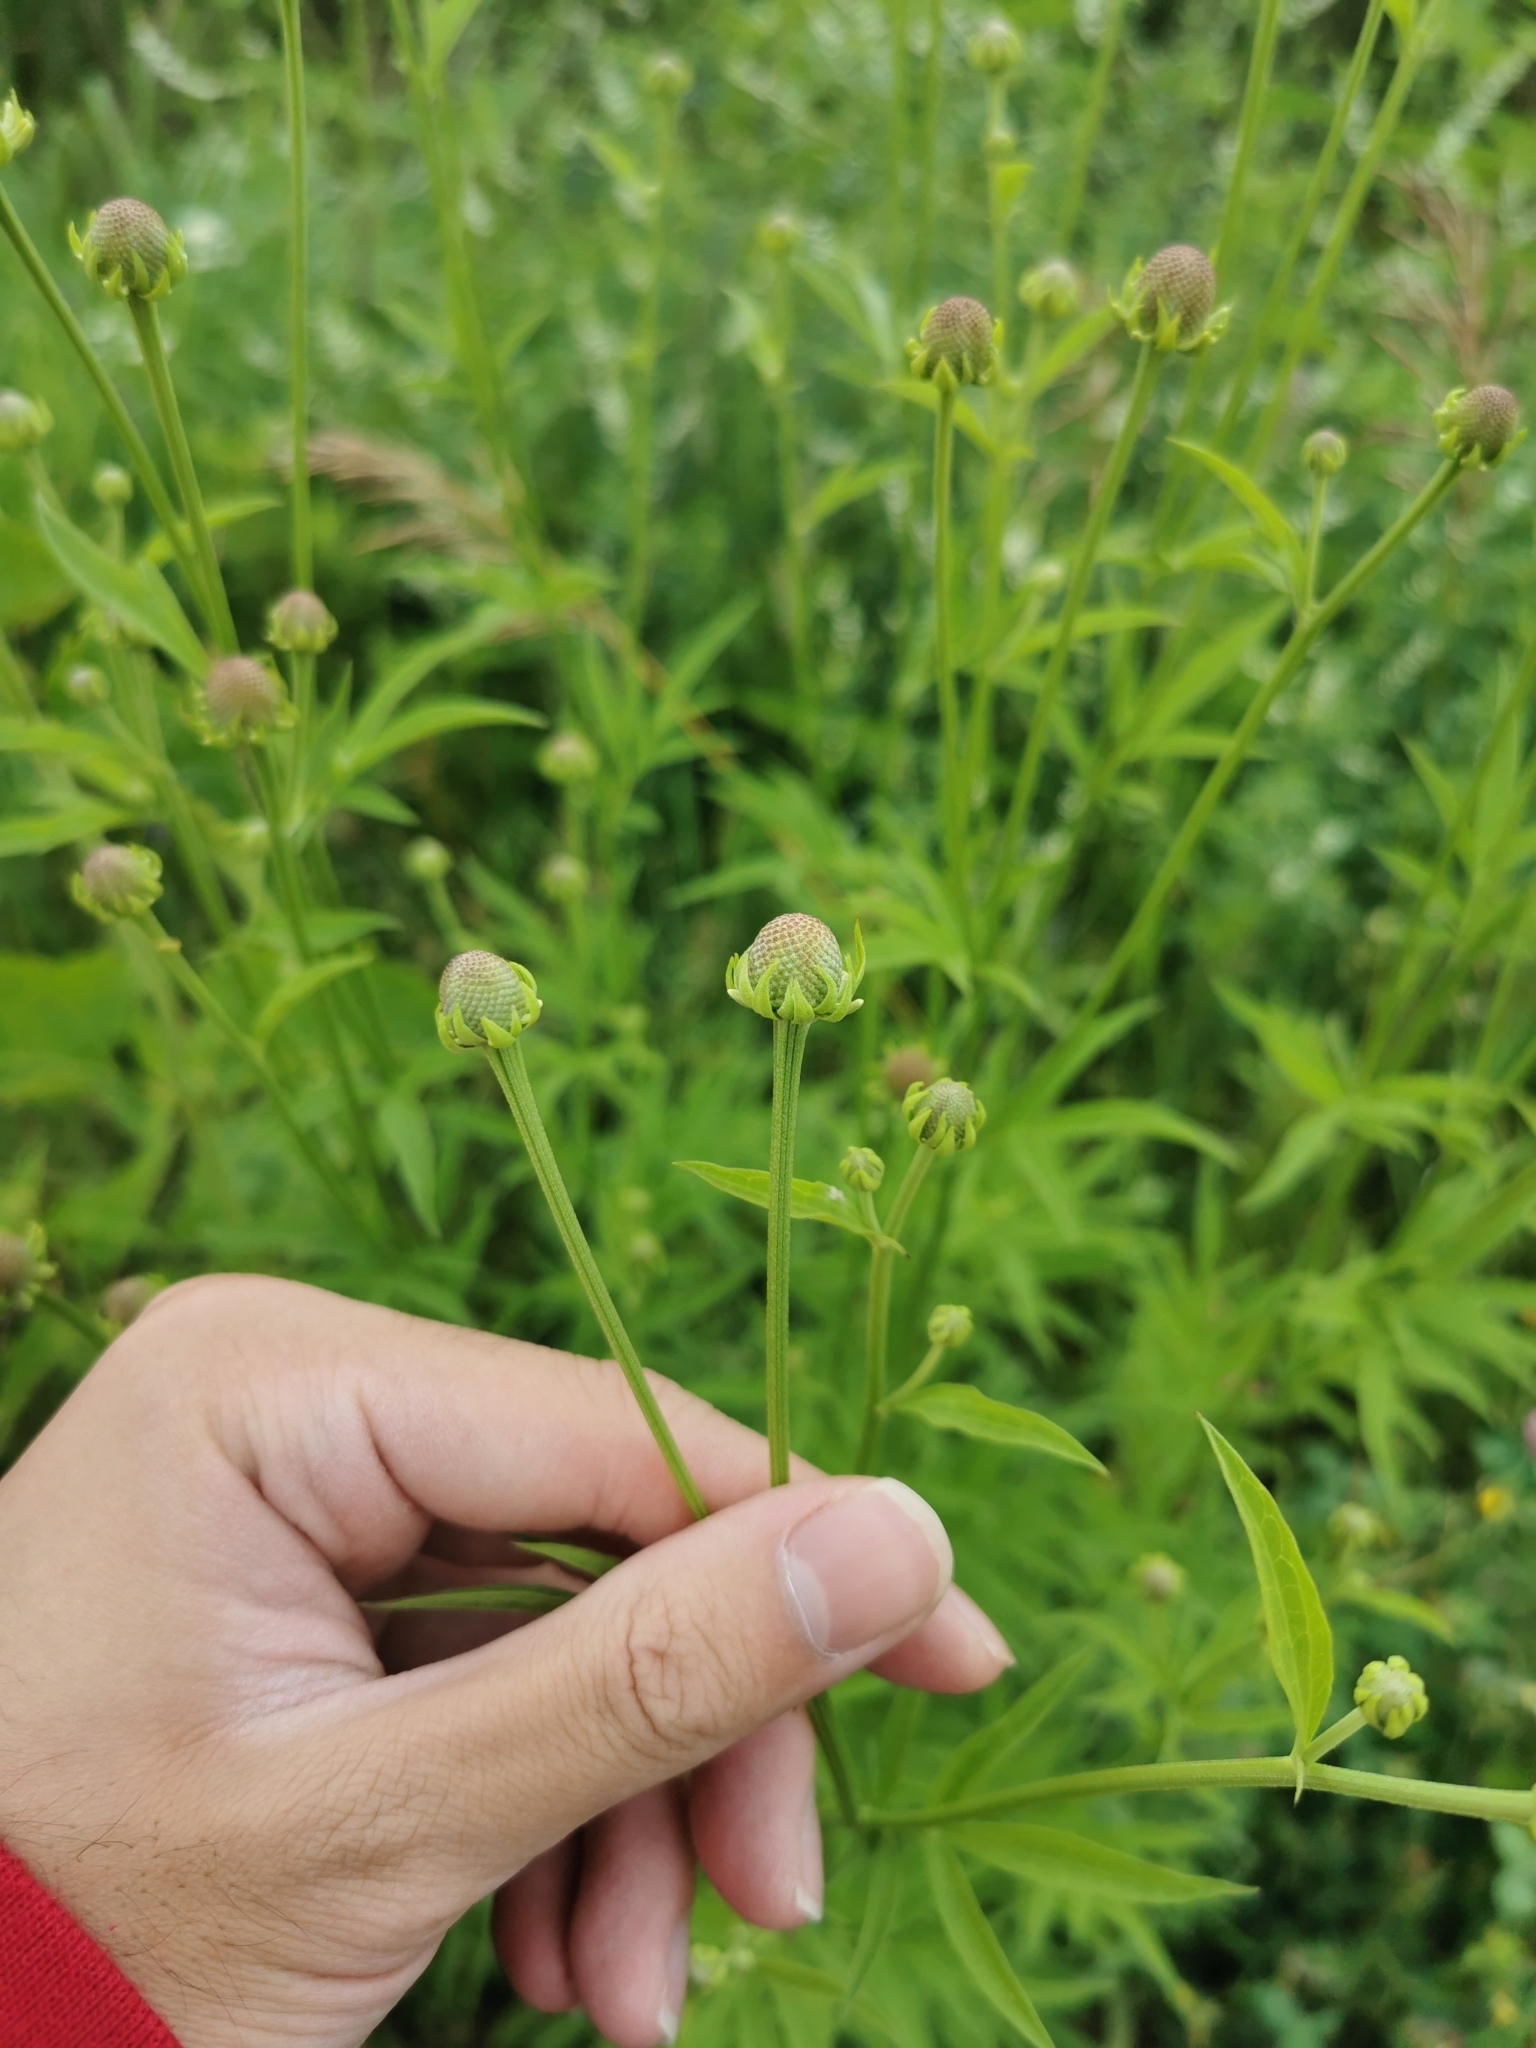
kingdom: Plantae
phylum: Tracheophyta
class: Magnoliopsida
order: Asterales
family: Asteraceae
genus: Ratibida
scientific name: Ratibida pinnata
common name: Drooping prairie-coneflower
